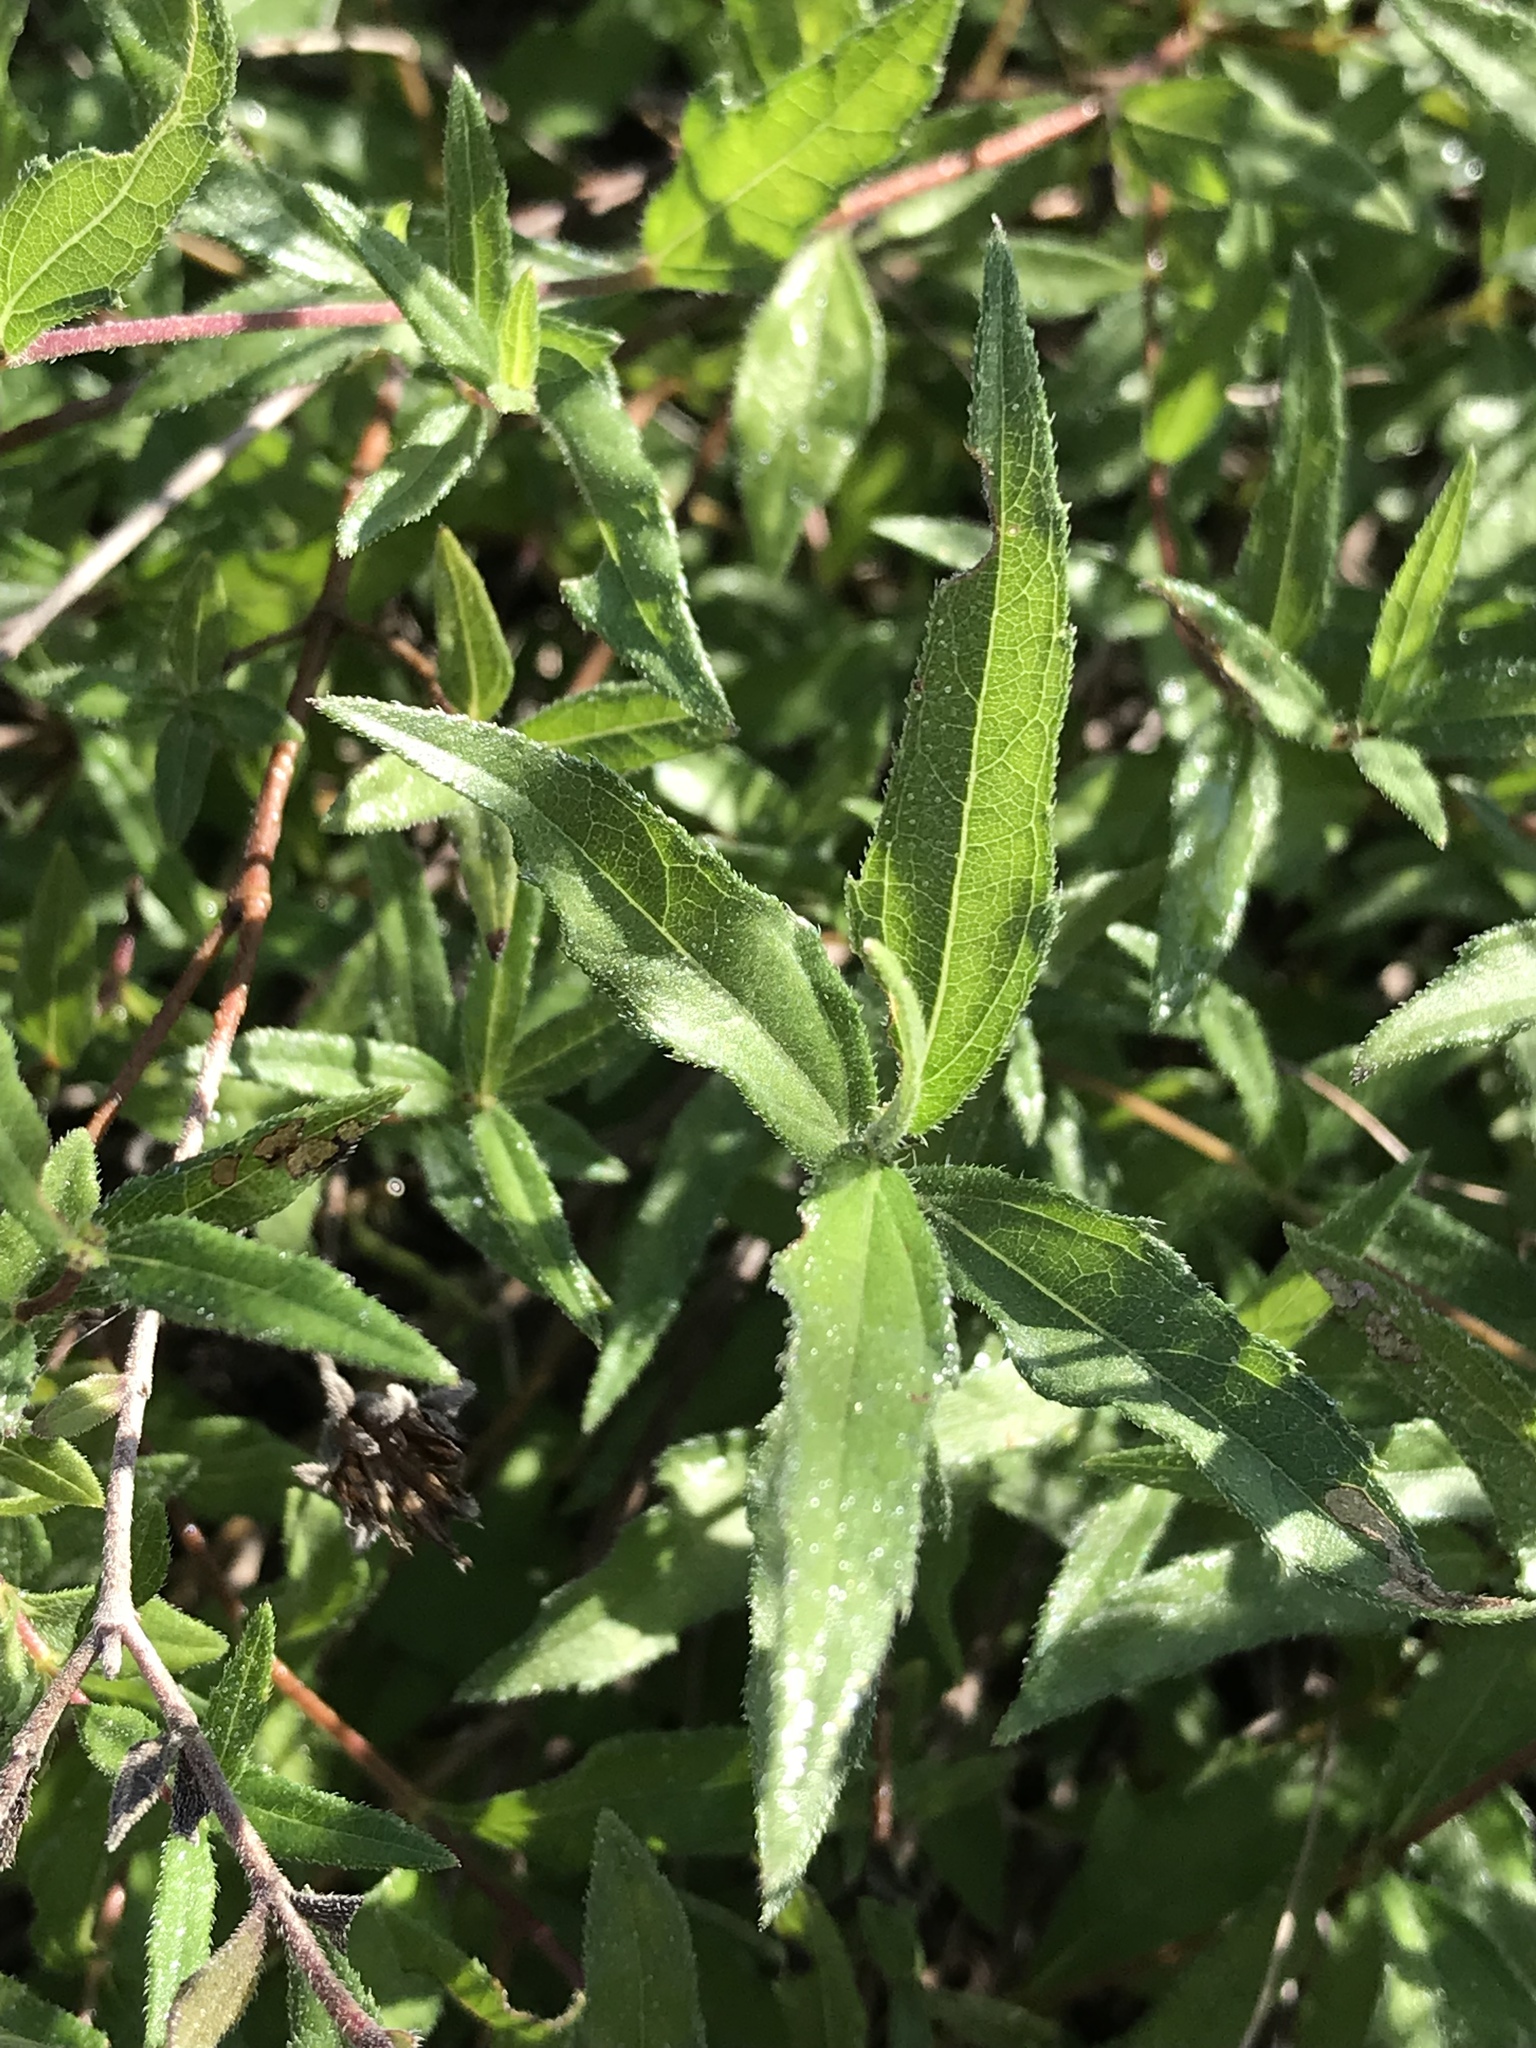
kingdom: Plantae
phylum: Tracheophyta
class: Magnoliopsida
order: Asterales
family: Asteraceae
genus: Wedelia
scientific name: Wedelia acapulcensis
